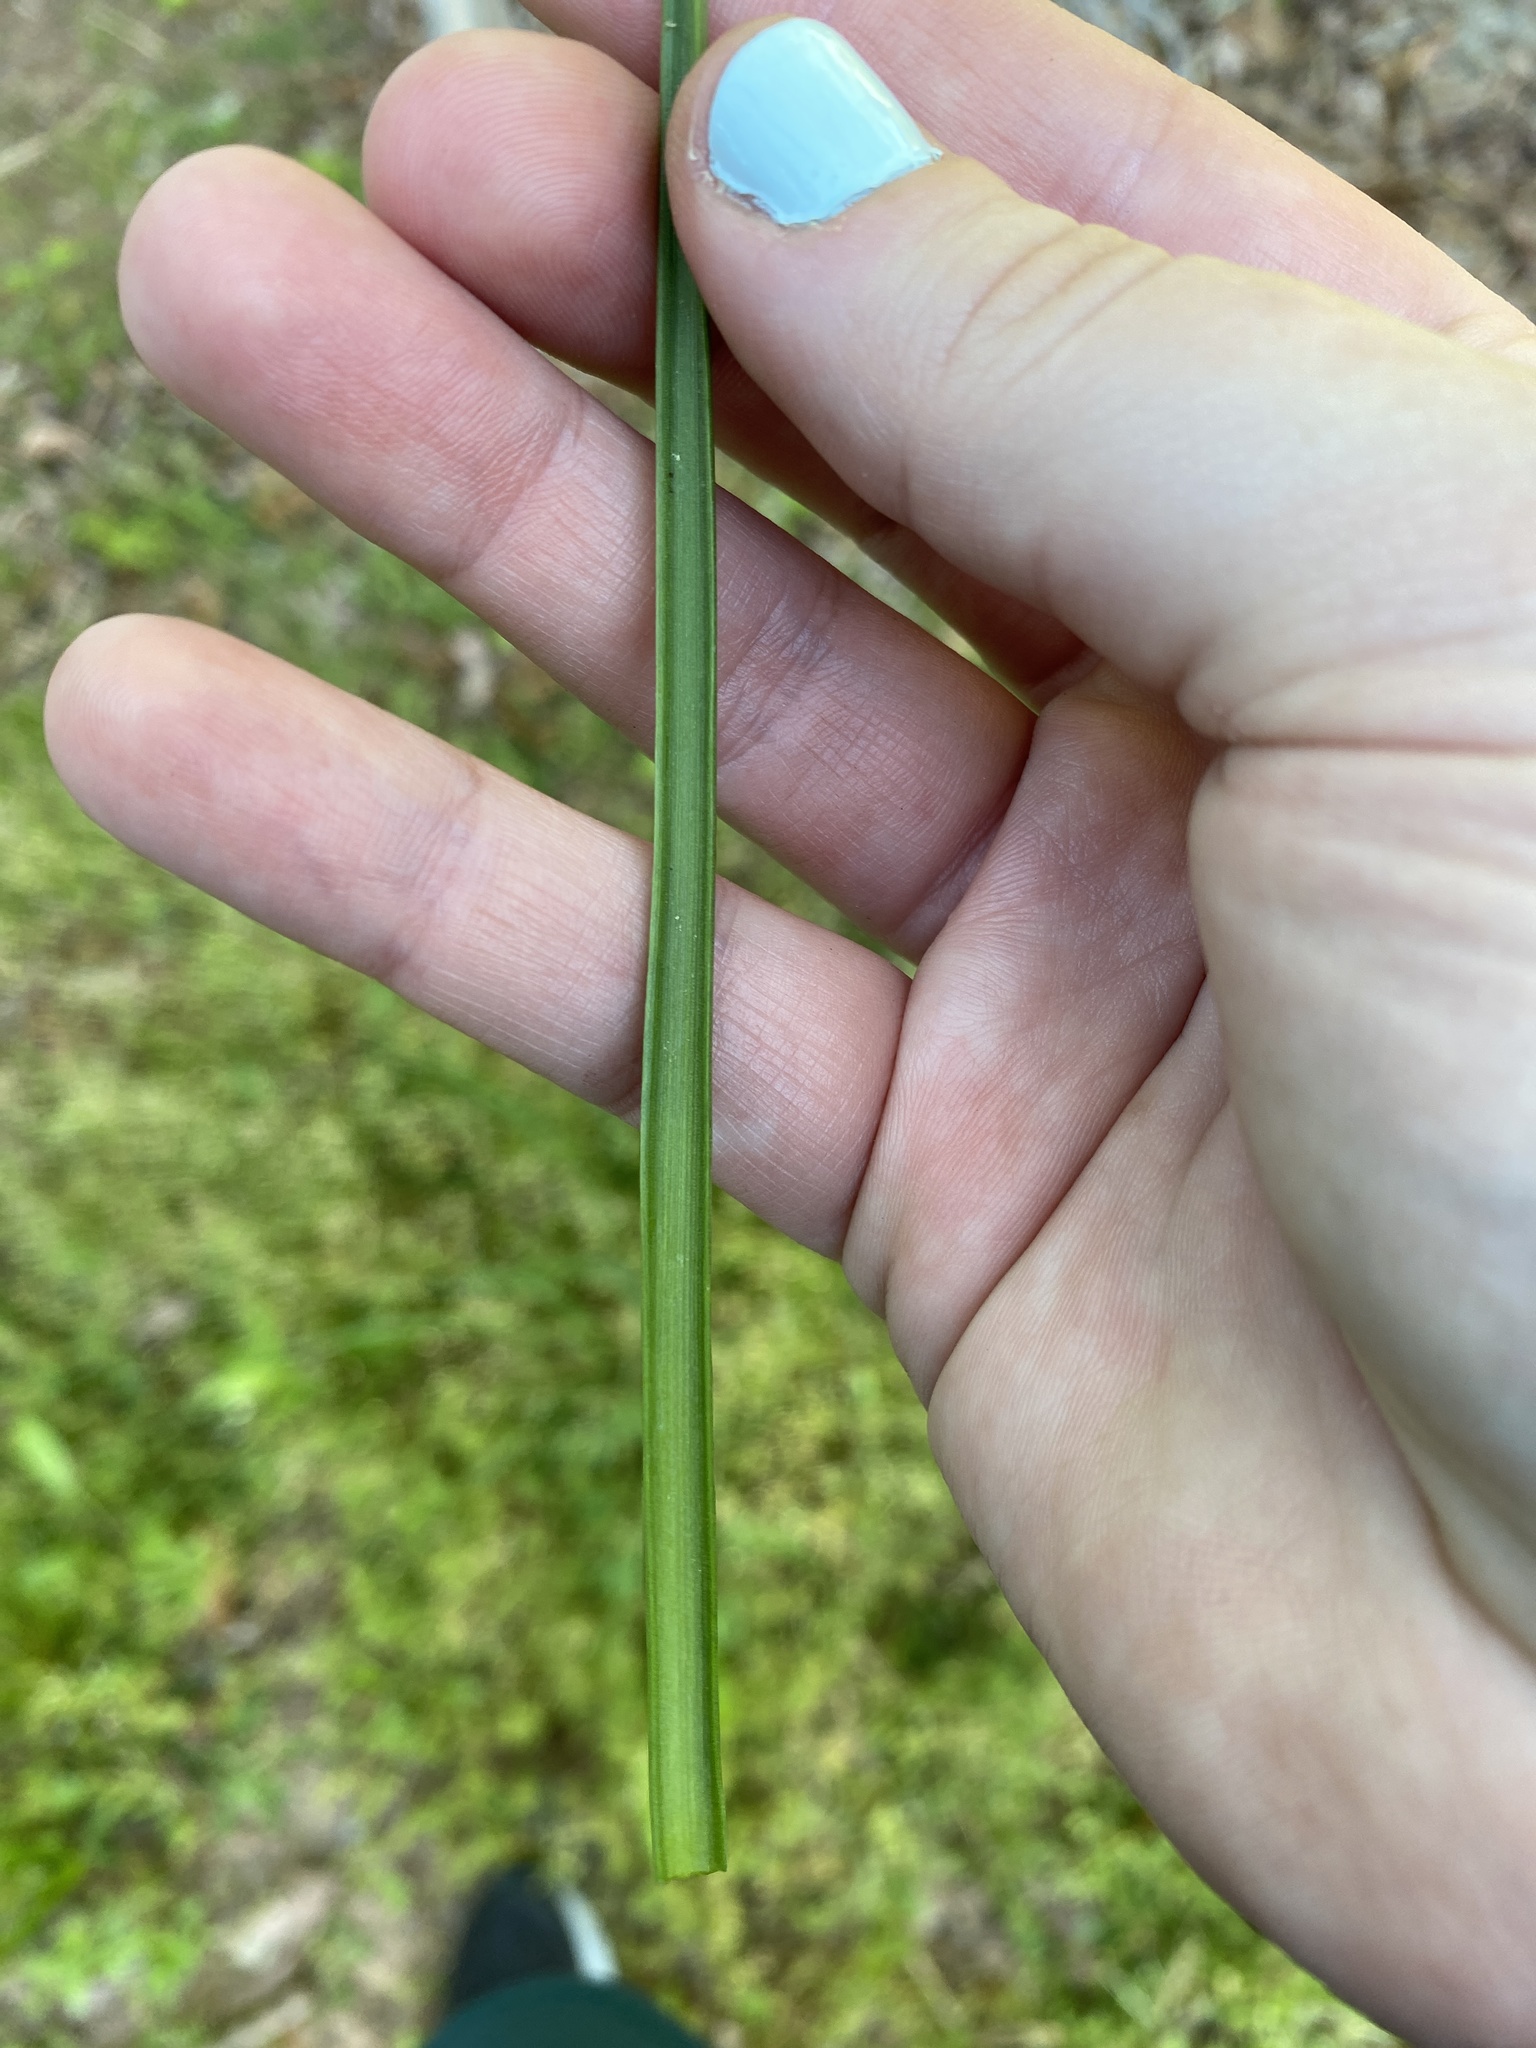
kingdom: Plantae
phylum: Tracheophyta
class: Liliopsida
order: Asparagales
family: Amaryllidaceae
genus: Allium
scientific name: Allium canadense
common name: Meadow garlic
